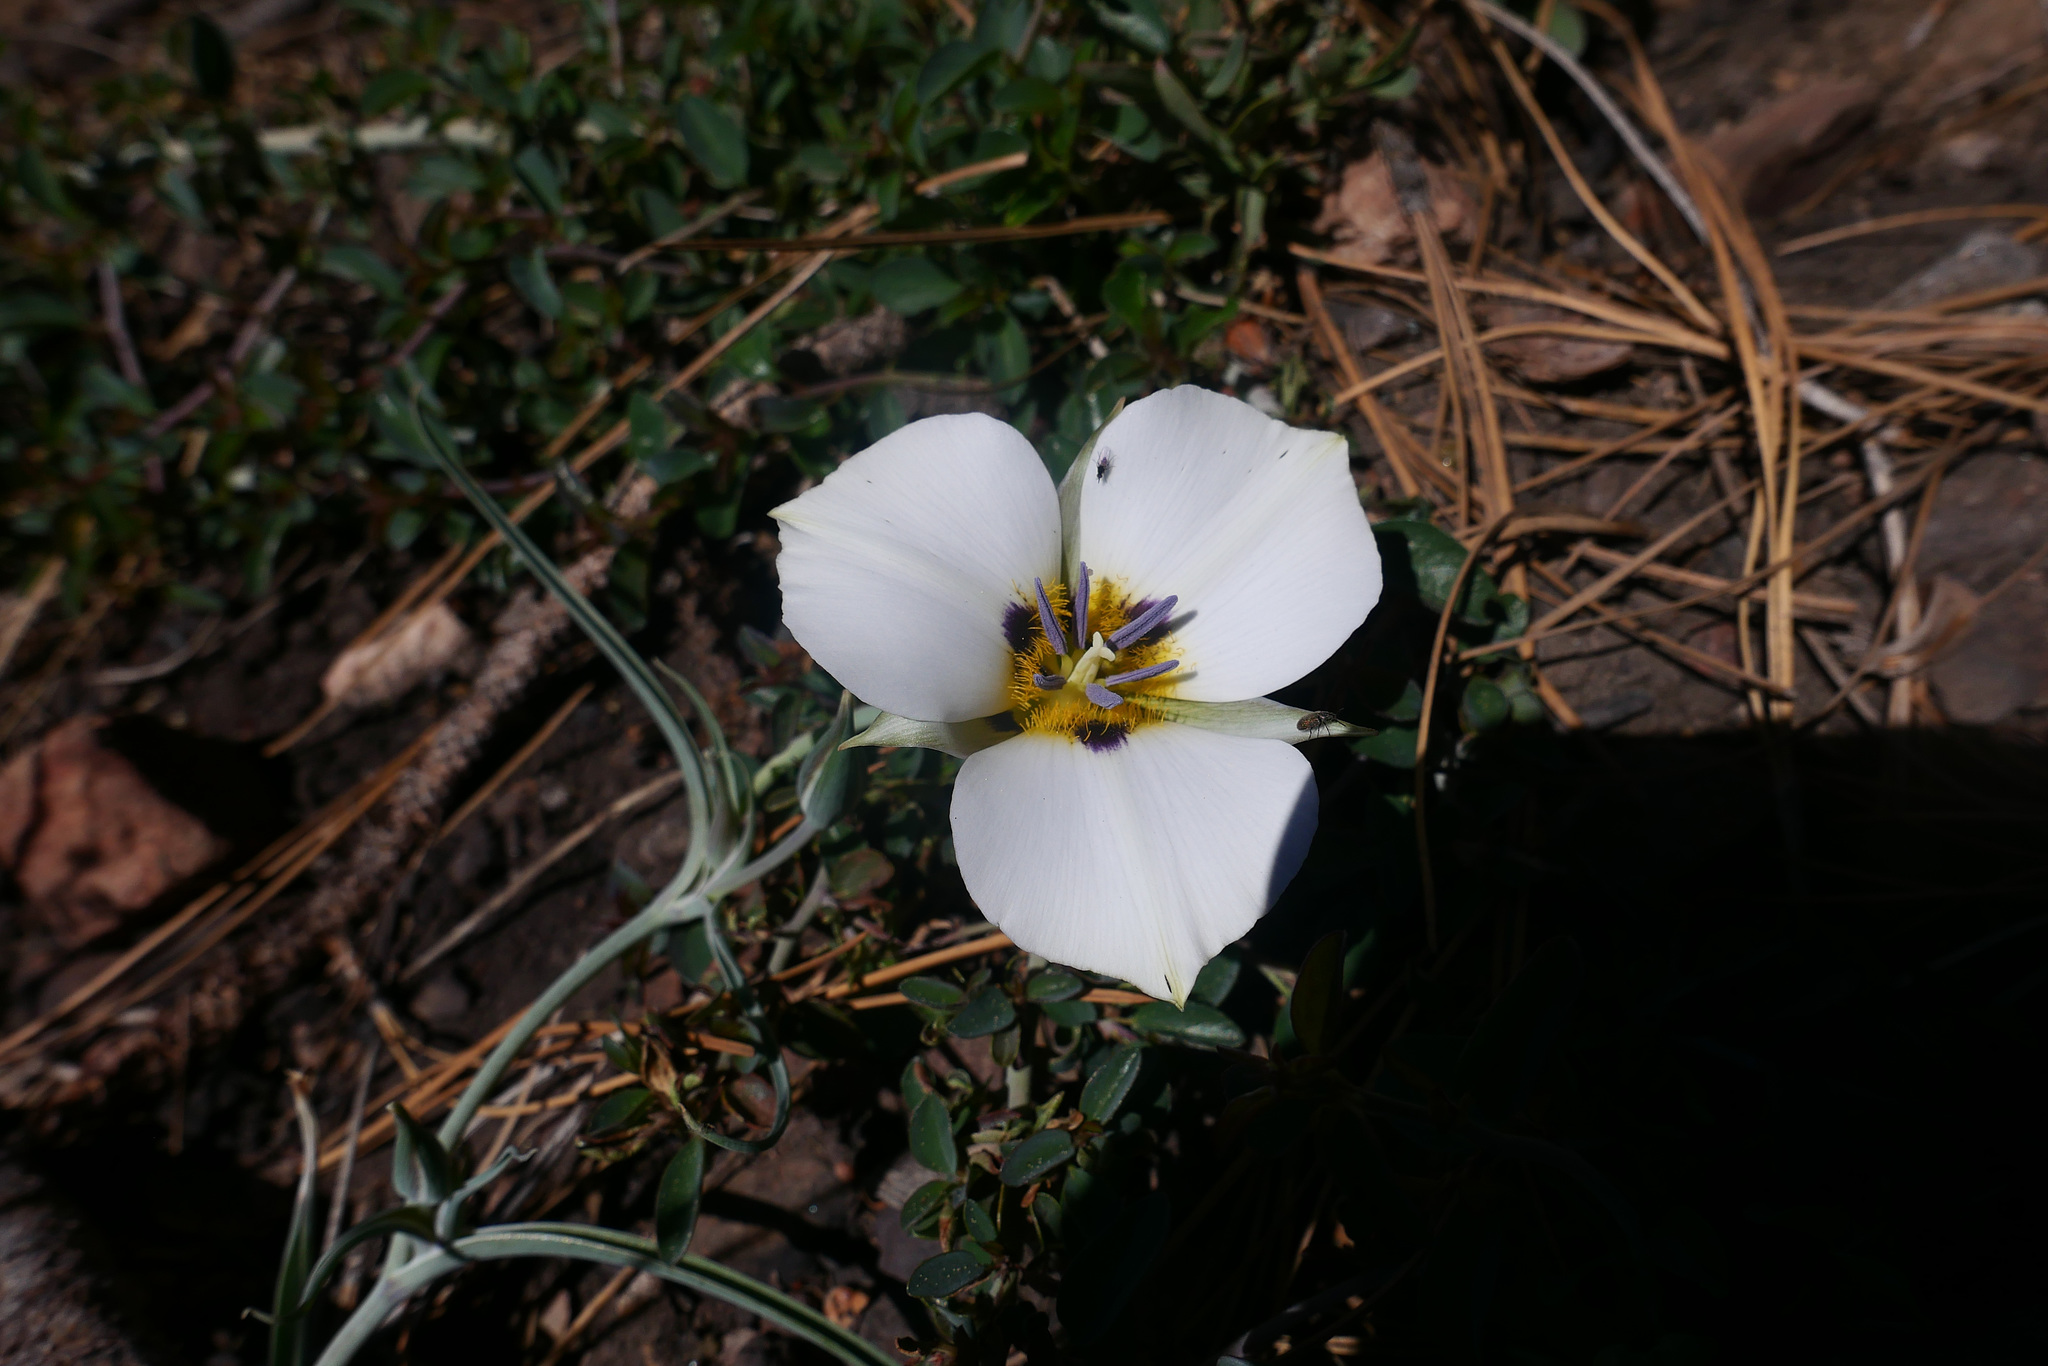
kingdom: Plantae
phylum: Tracheophyta
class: Liliopsida
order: Liliales
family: Liliaceae
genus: Calochortus
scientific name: Calochortus leichtlinii
